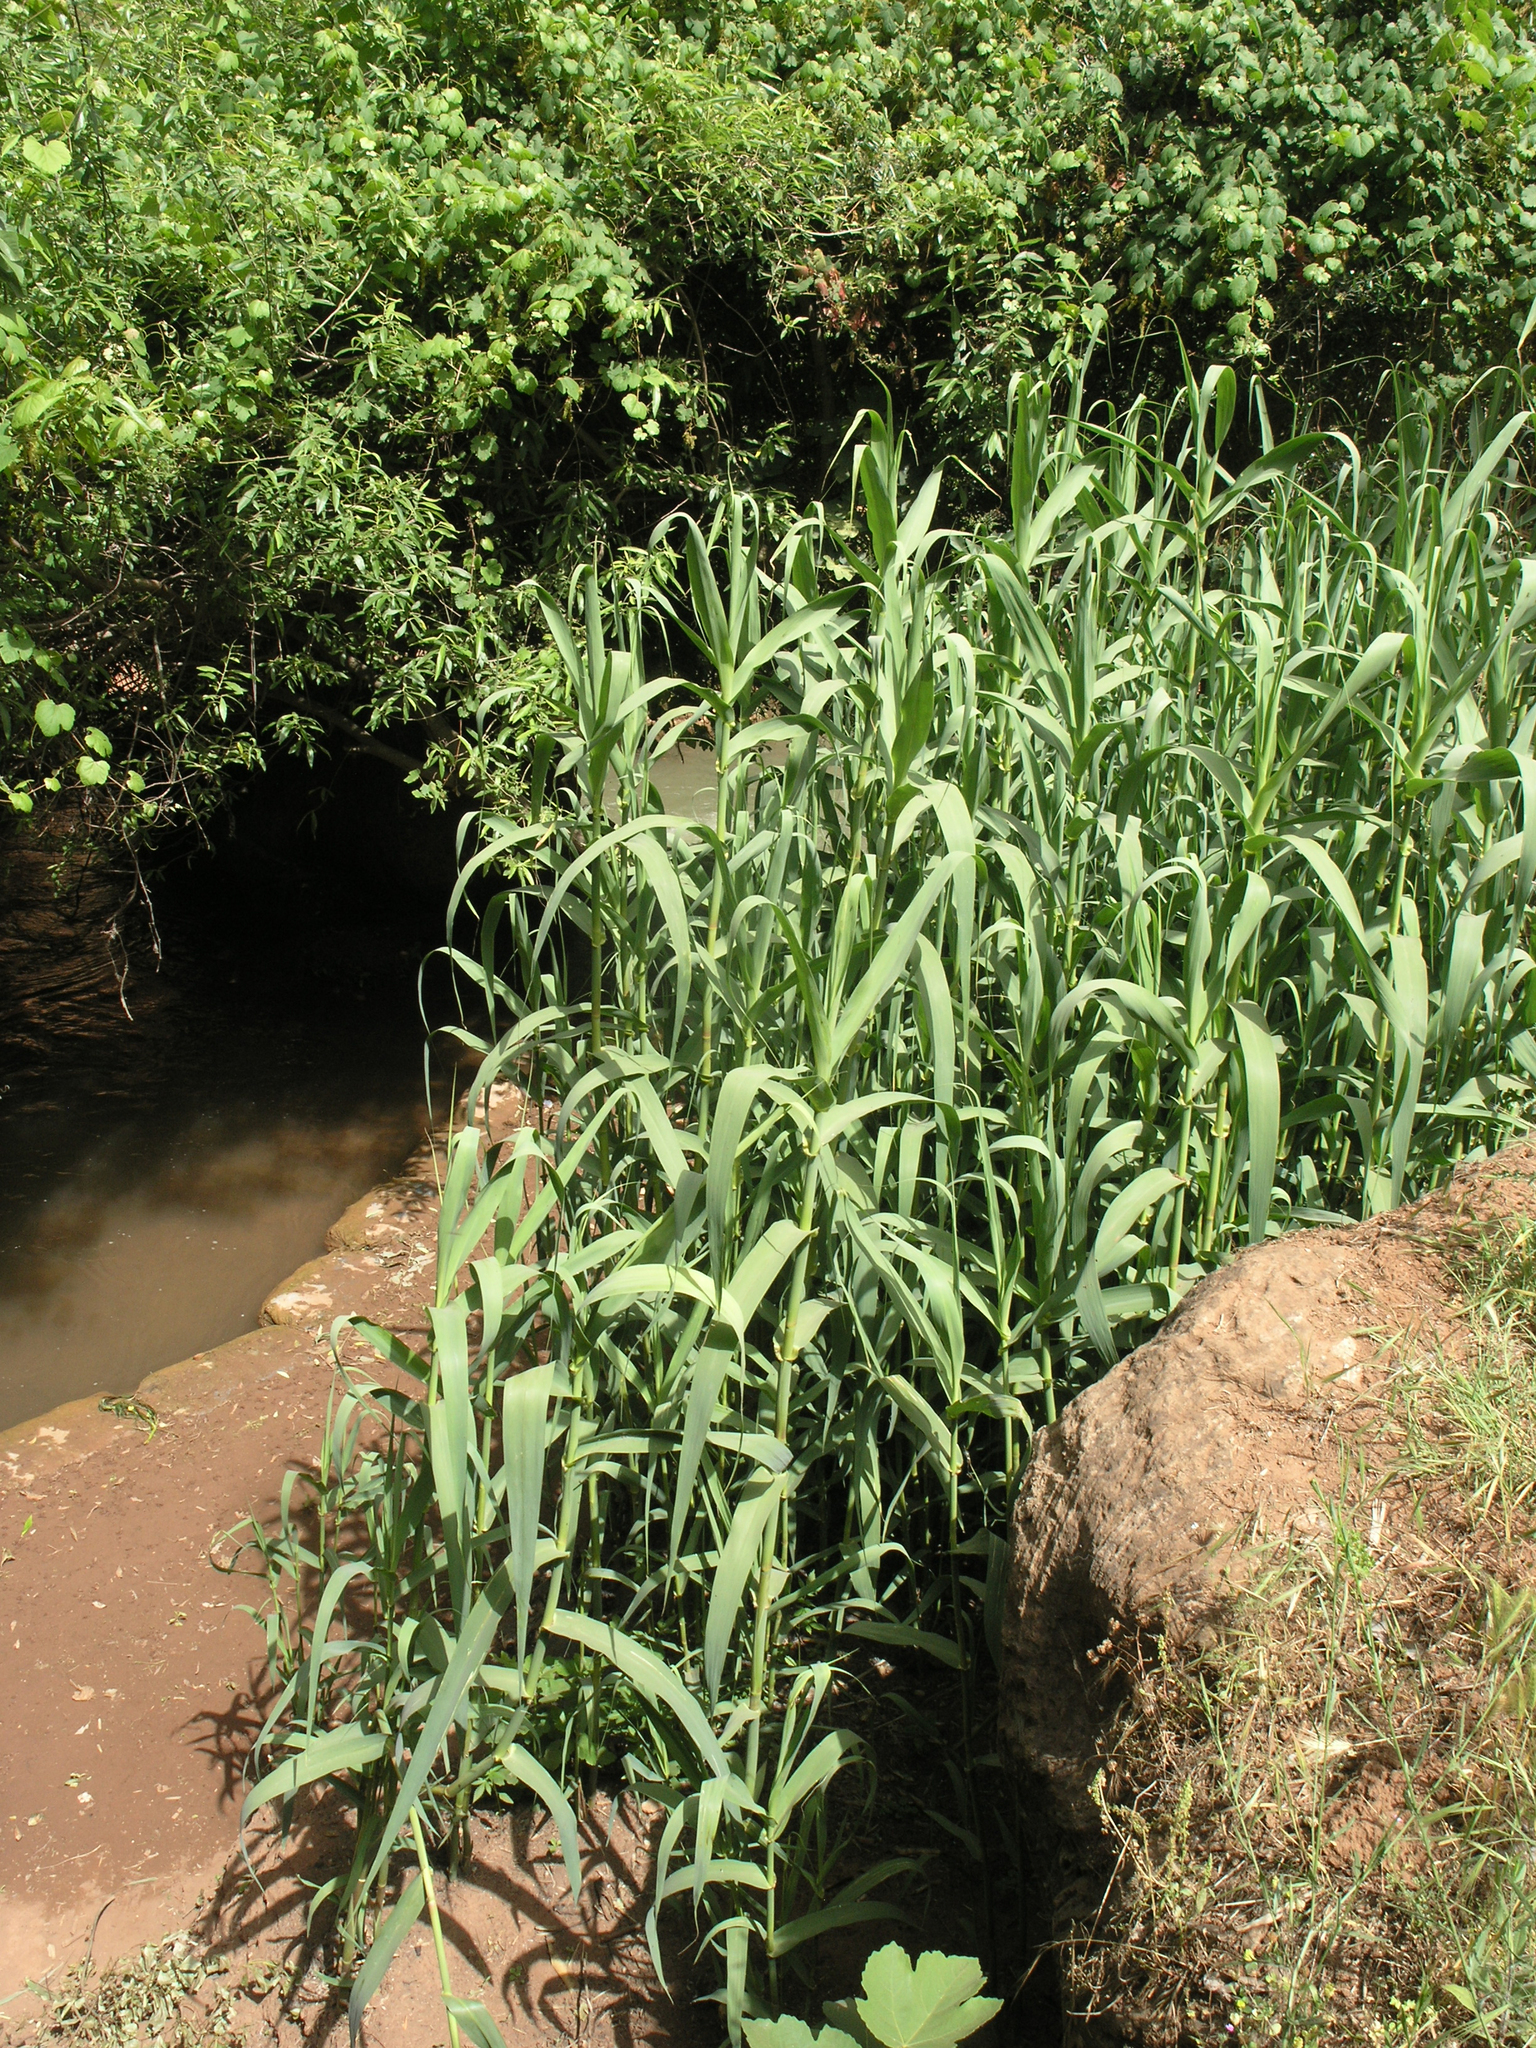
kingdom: Plantae
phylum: Tracheophyta
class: Liliopsida
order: Poales
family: Poaceae
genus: Arundo
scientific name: Arundo donax
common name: Giant reed
